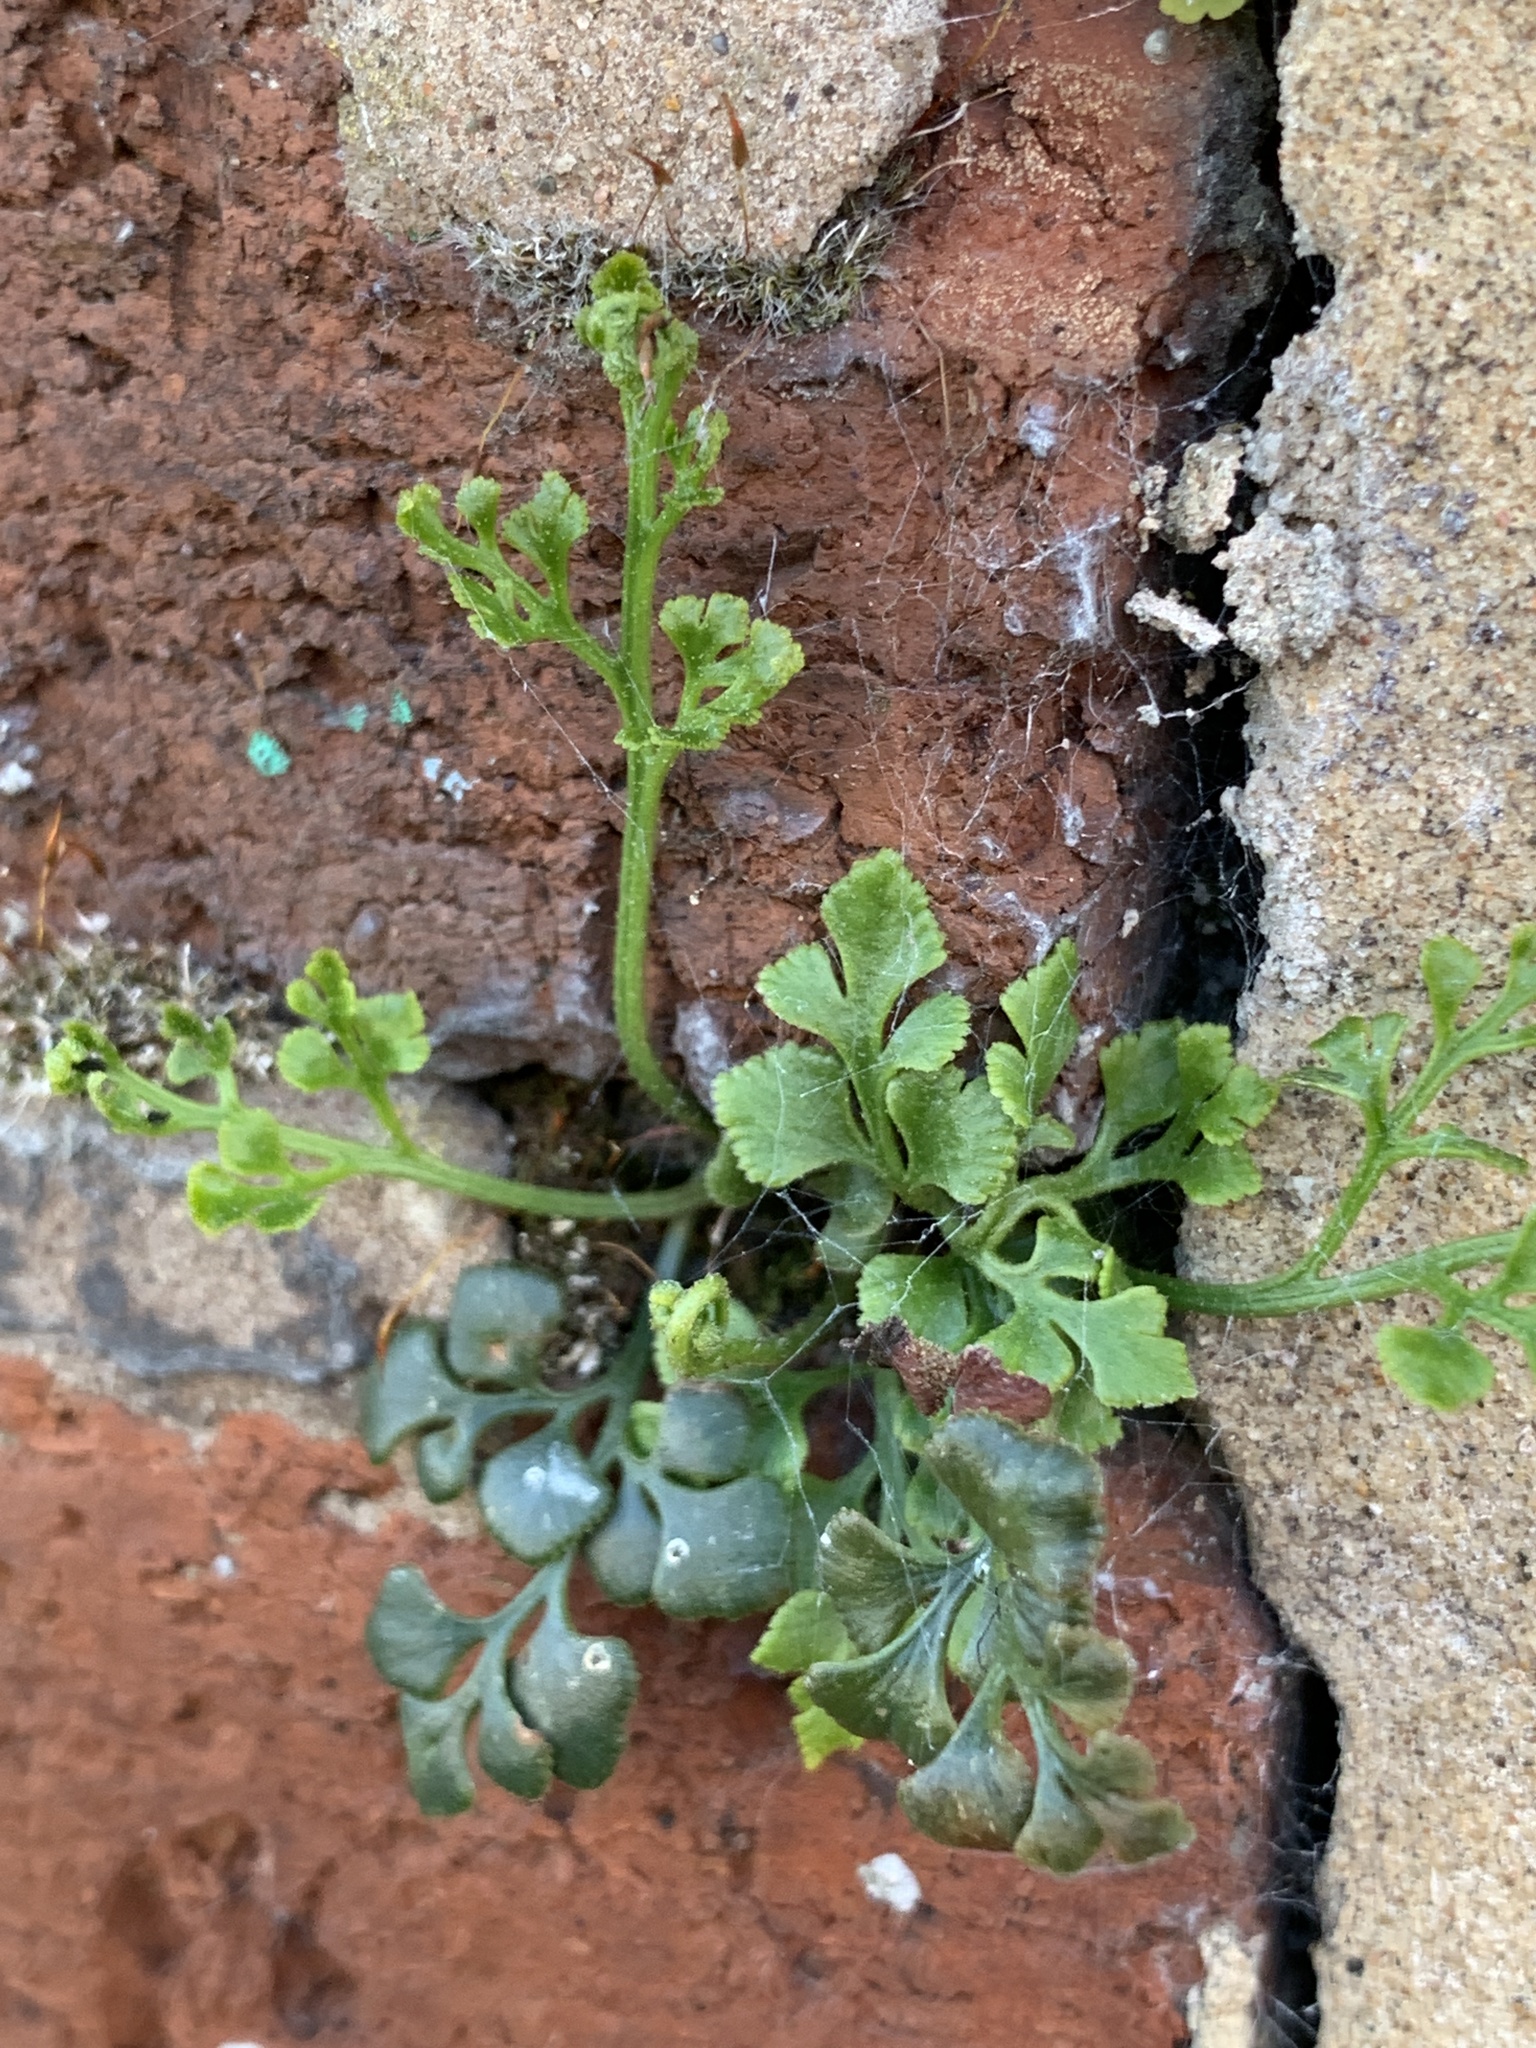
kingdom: Plantae
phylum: Tracheophyta
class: Polypodiopsida
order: Polypodiales
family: Aspleniaceae
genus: Asplenium
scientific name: Asplenium ruta-muraria
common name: Wall-rue
